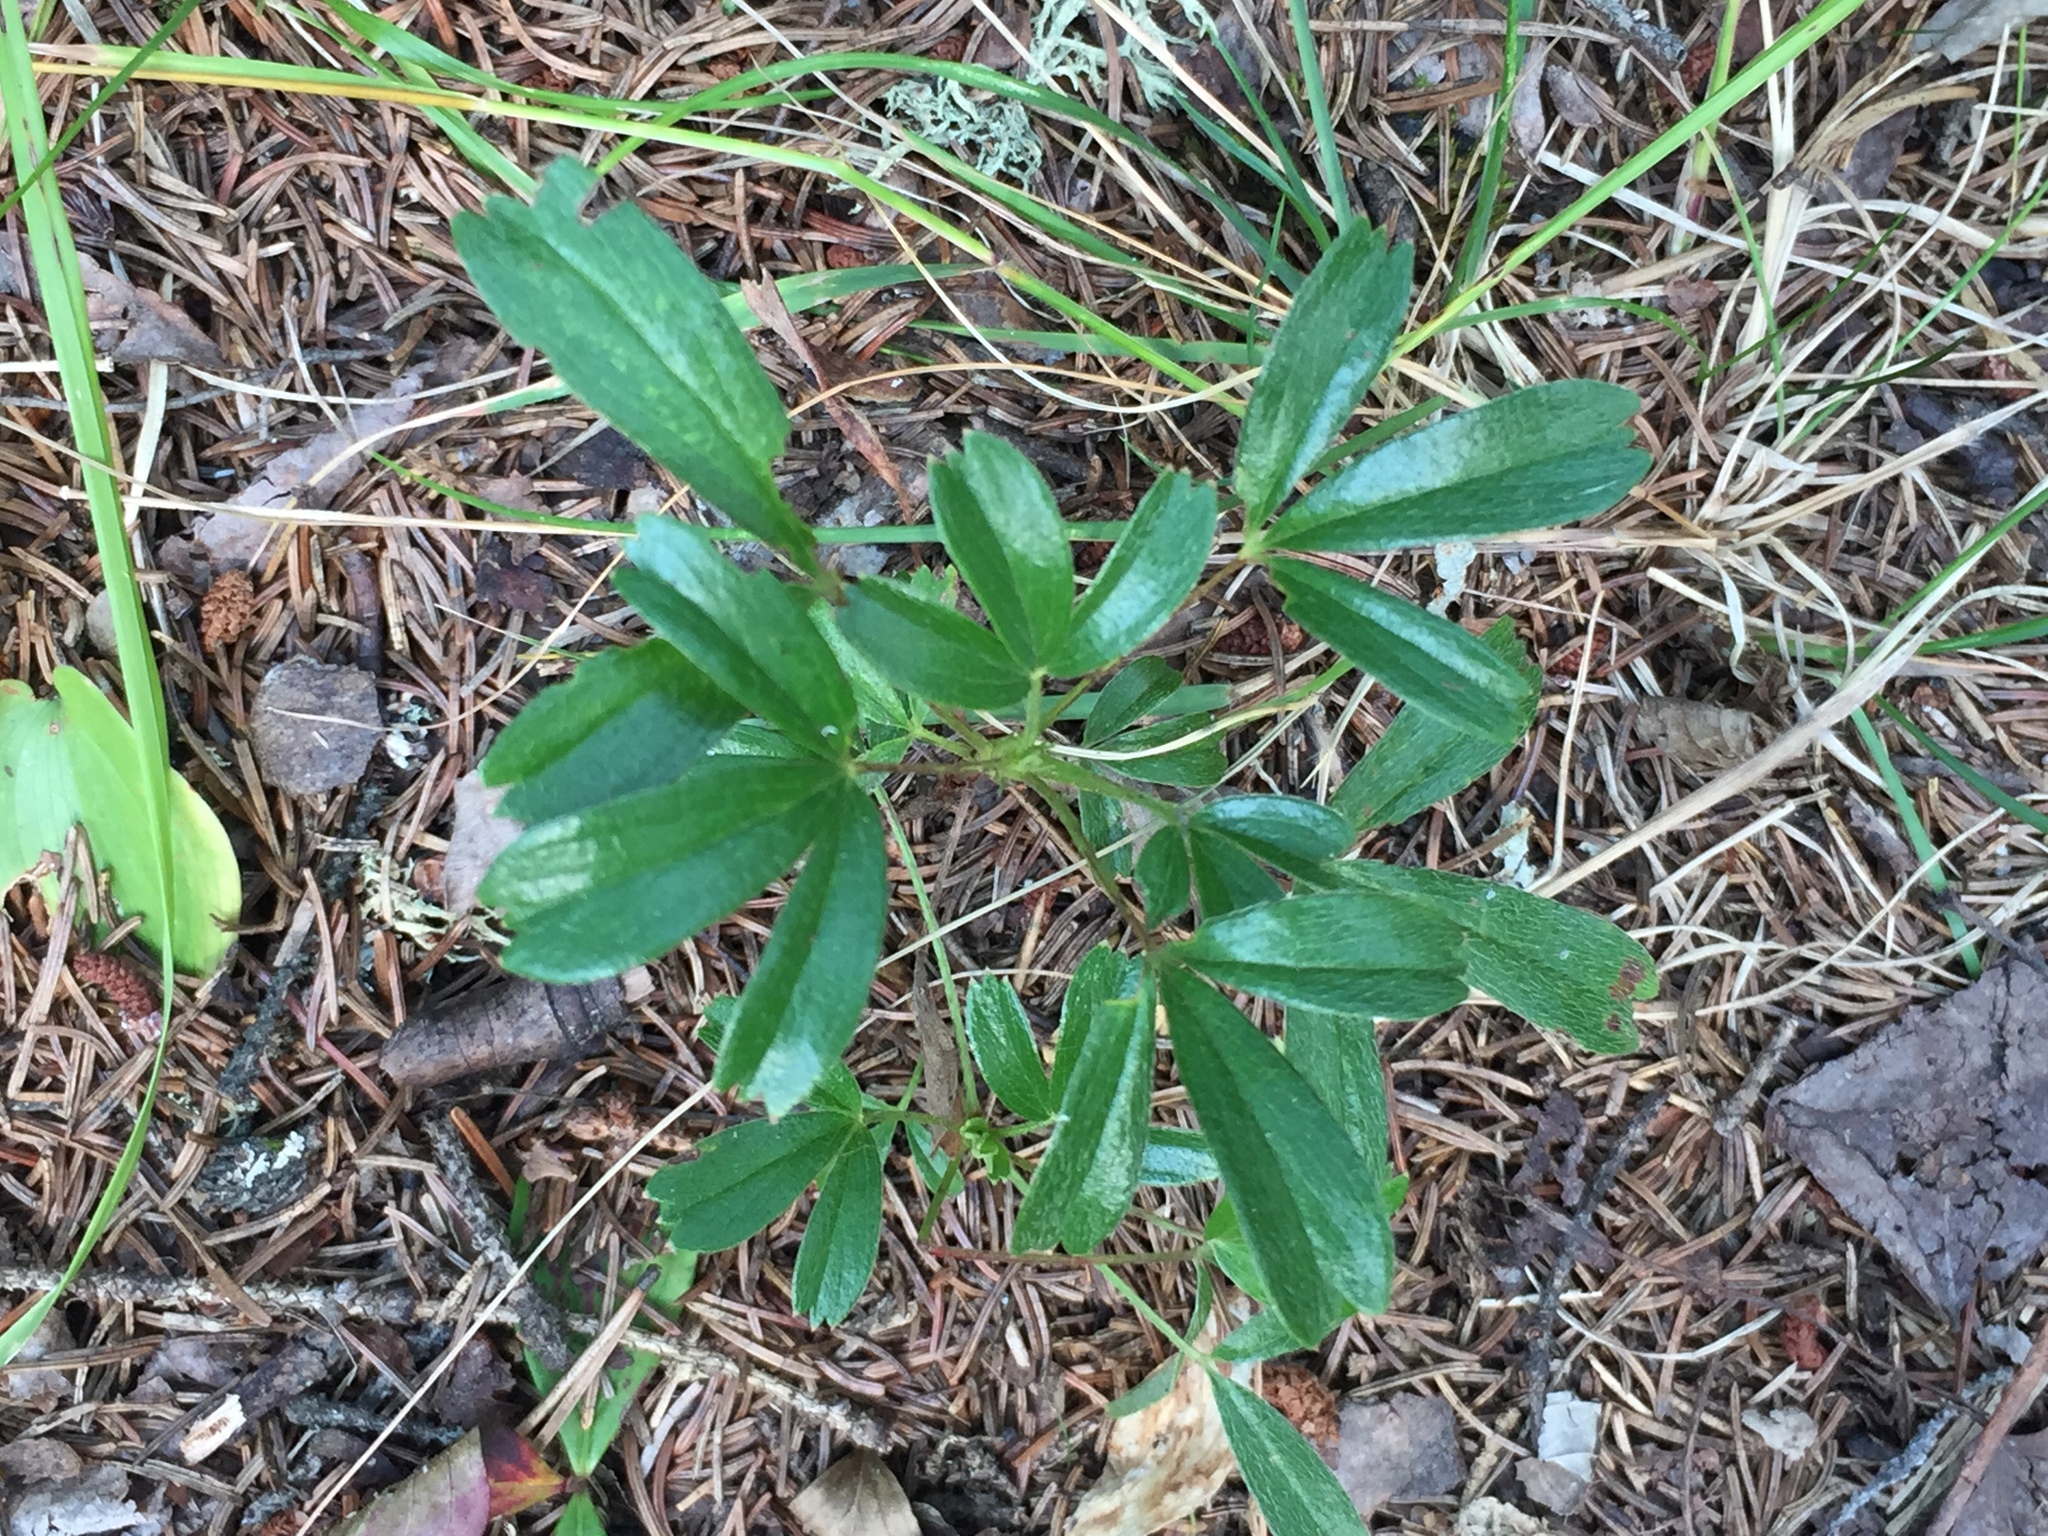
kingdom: Plantae
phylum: Tracheophyta
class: Magnoliopsida
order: Rosales
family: Rosaceae
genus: Sibbaldia
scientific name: Sibbaldia tridentata
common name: Three-toothed cinquefoil
